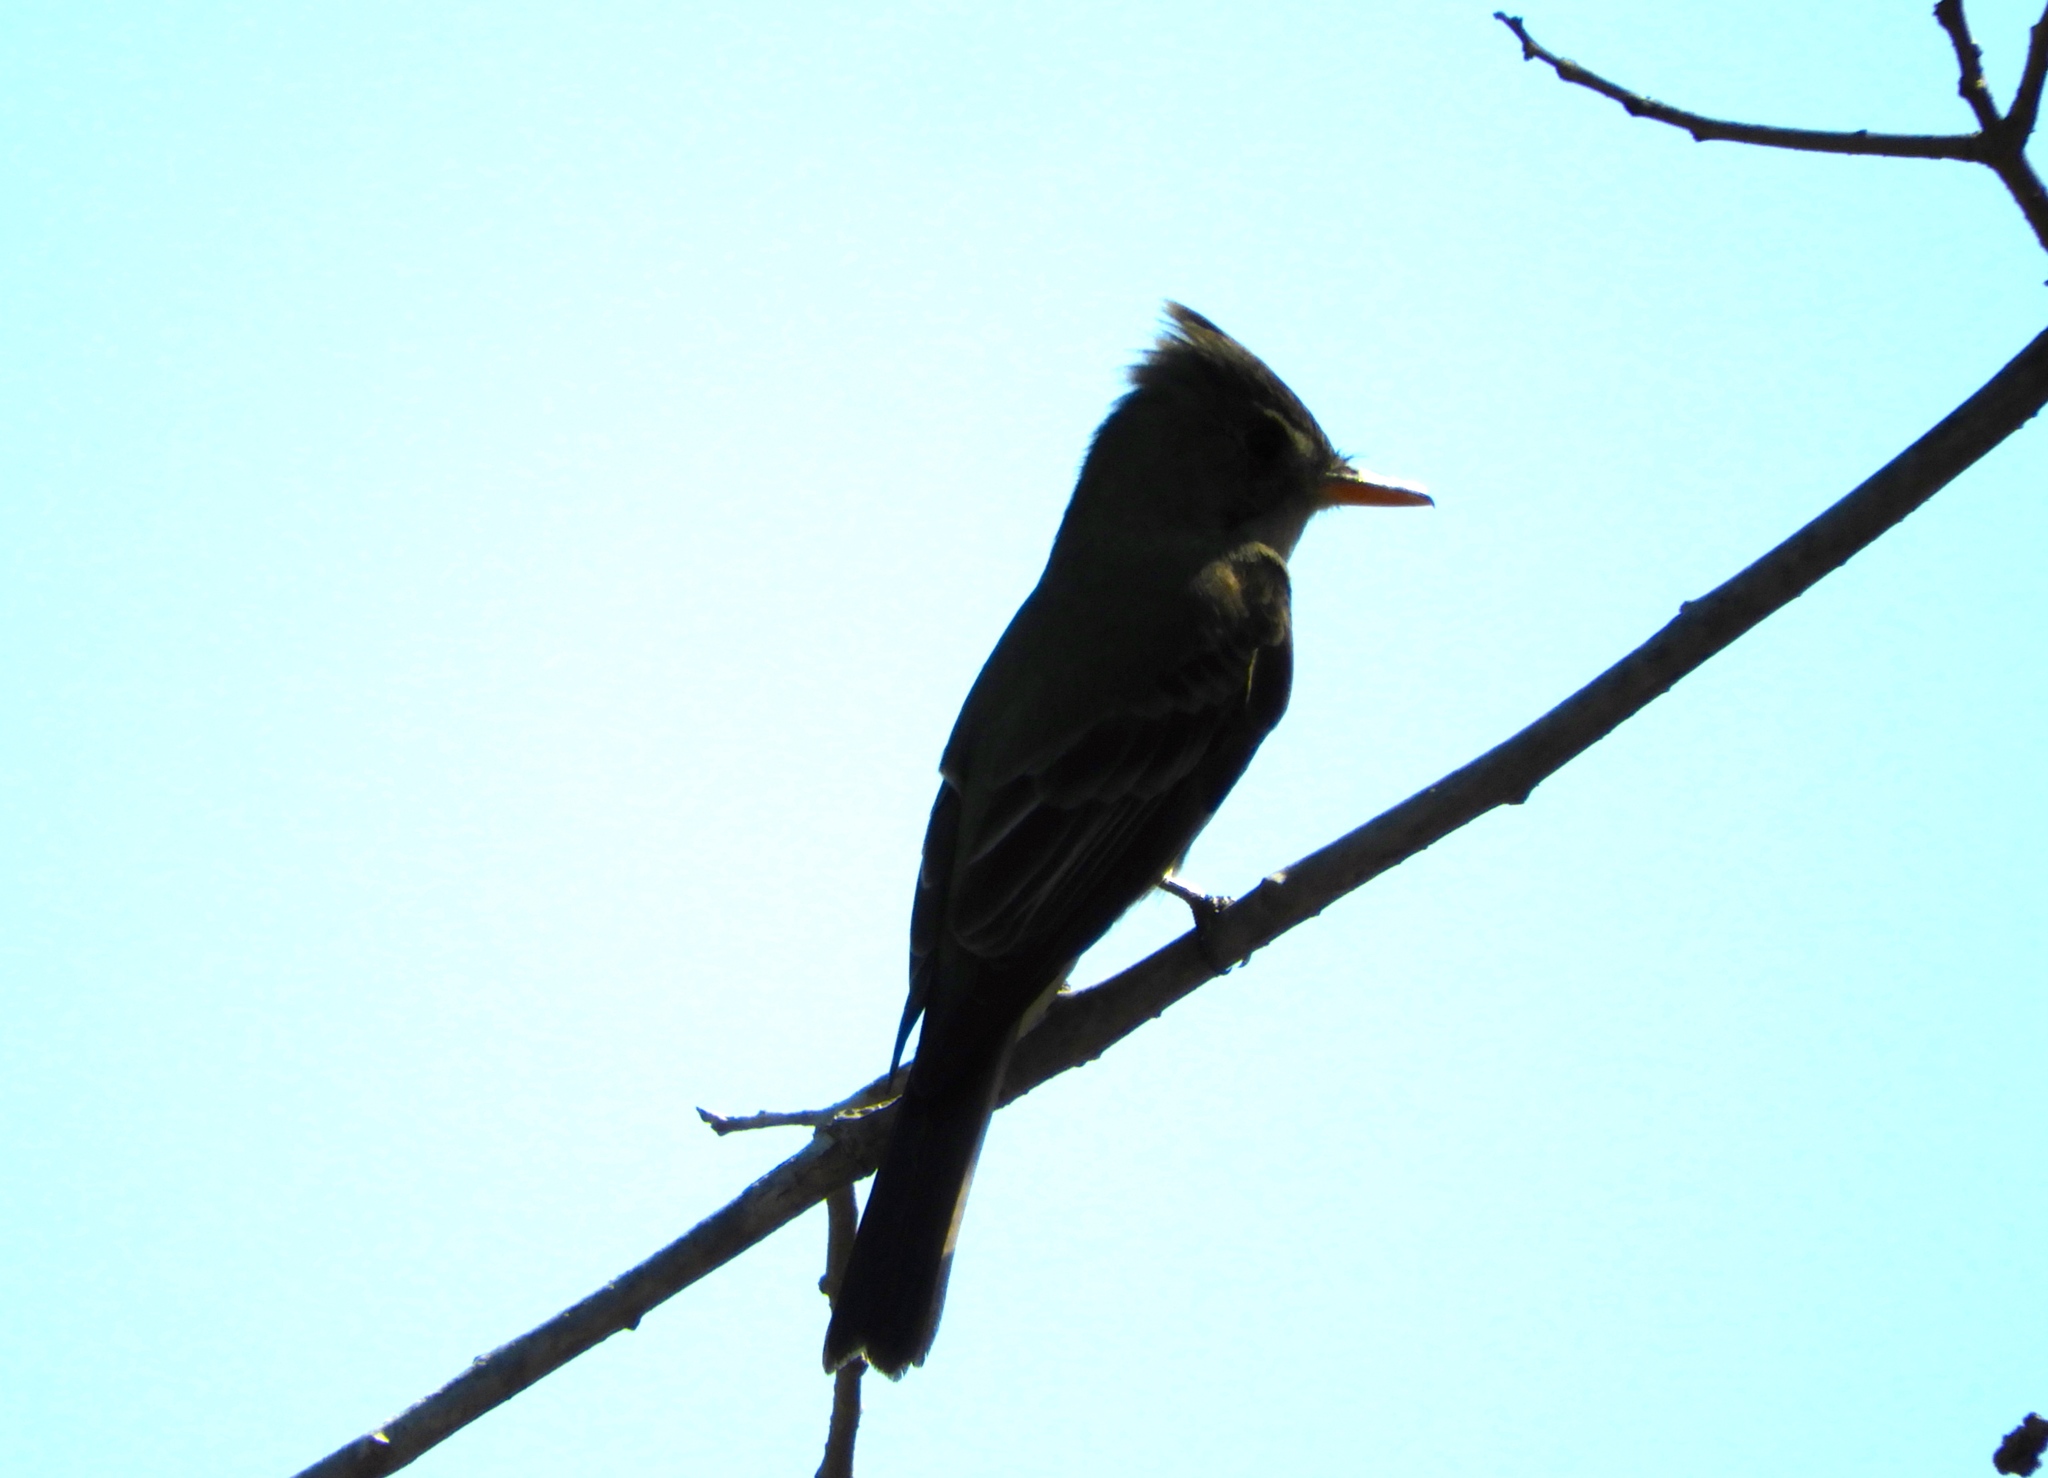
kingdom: Animalia
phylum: Chordata
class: Aves
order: Passeriformes
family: Tyrannidae
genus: Contopus
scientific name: Contopus pertinax
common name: Greater pewee
